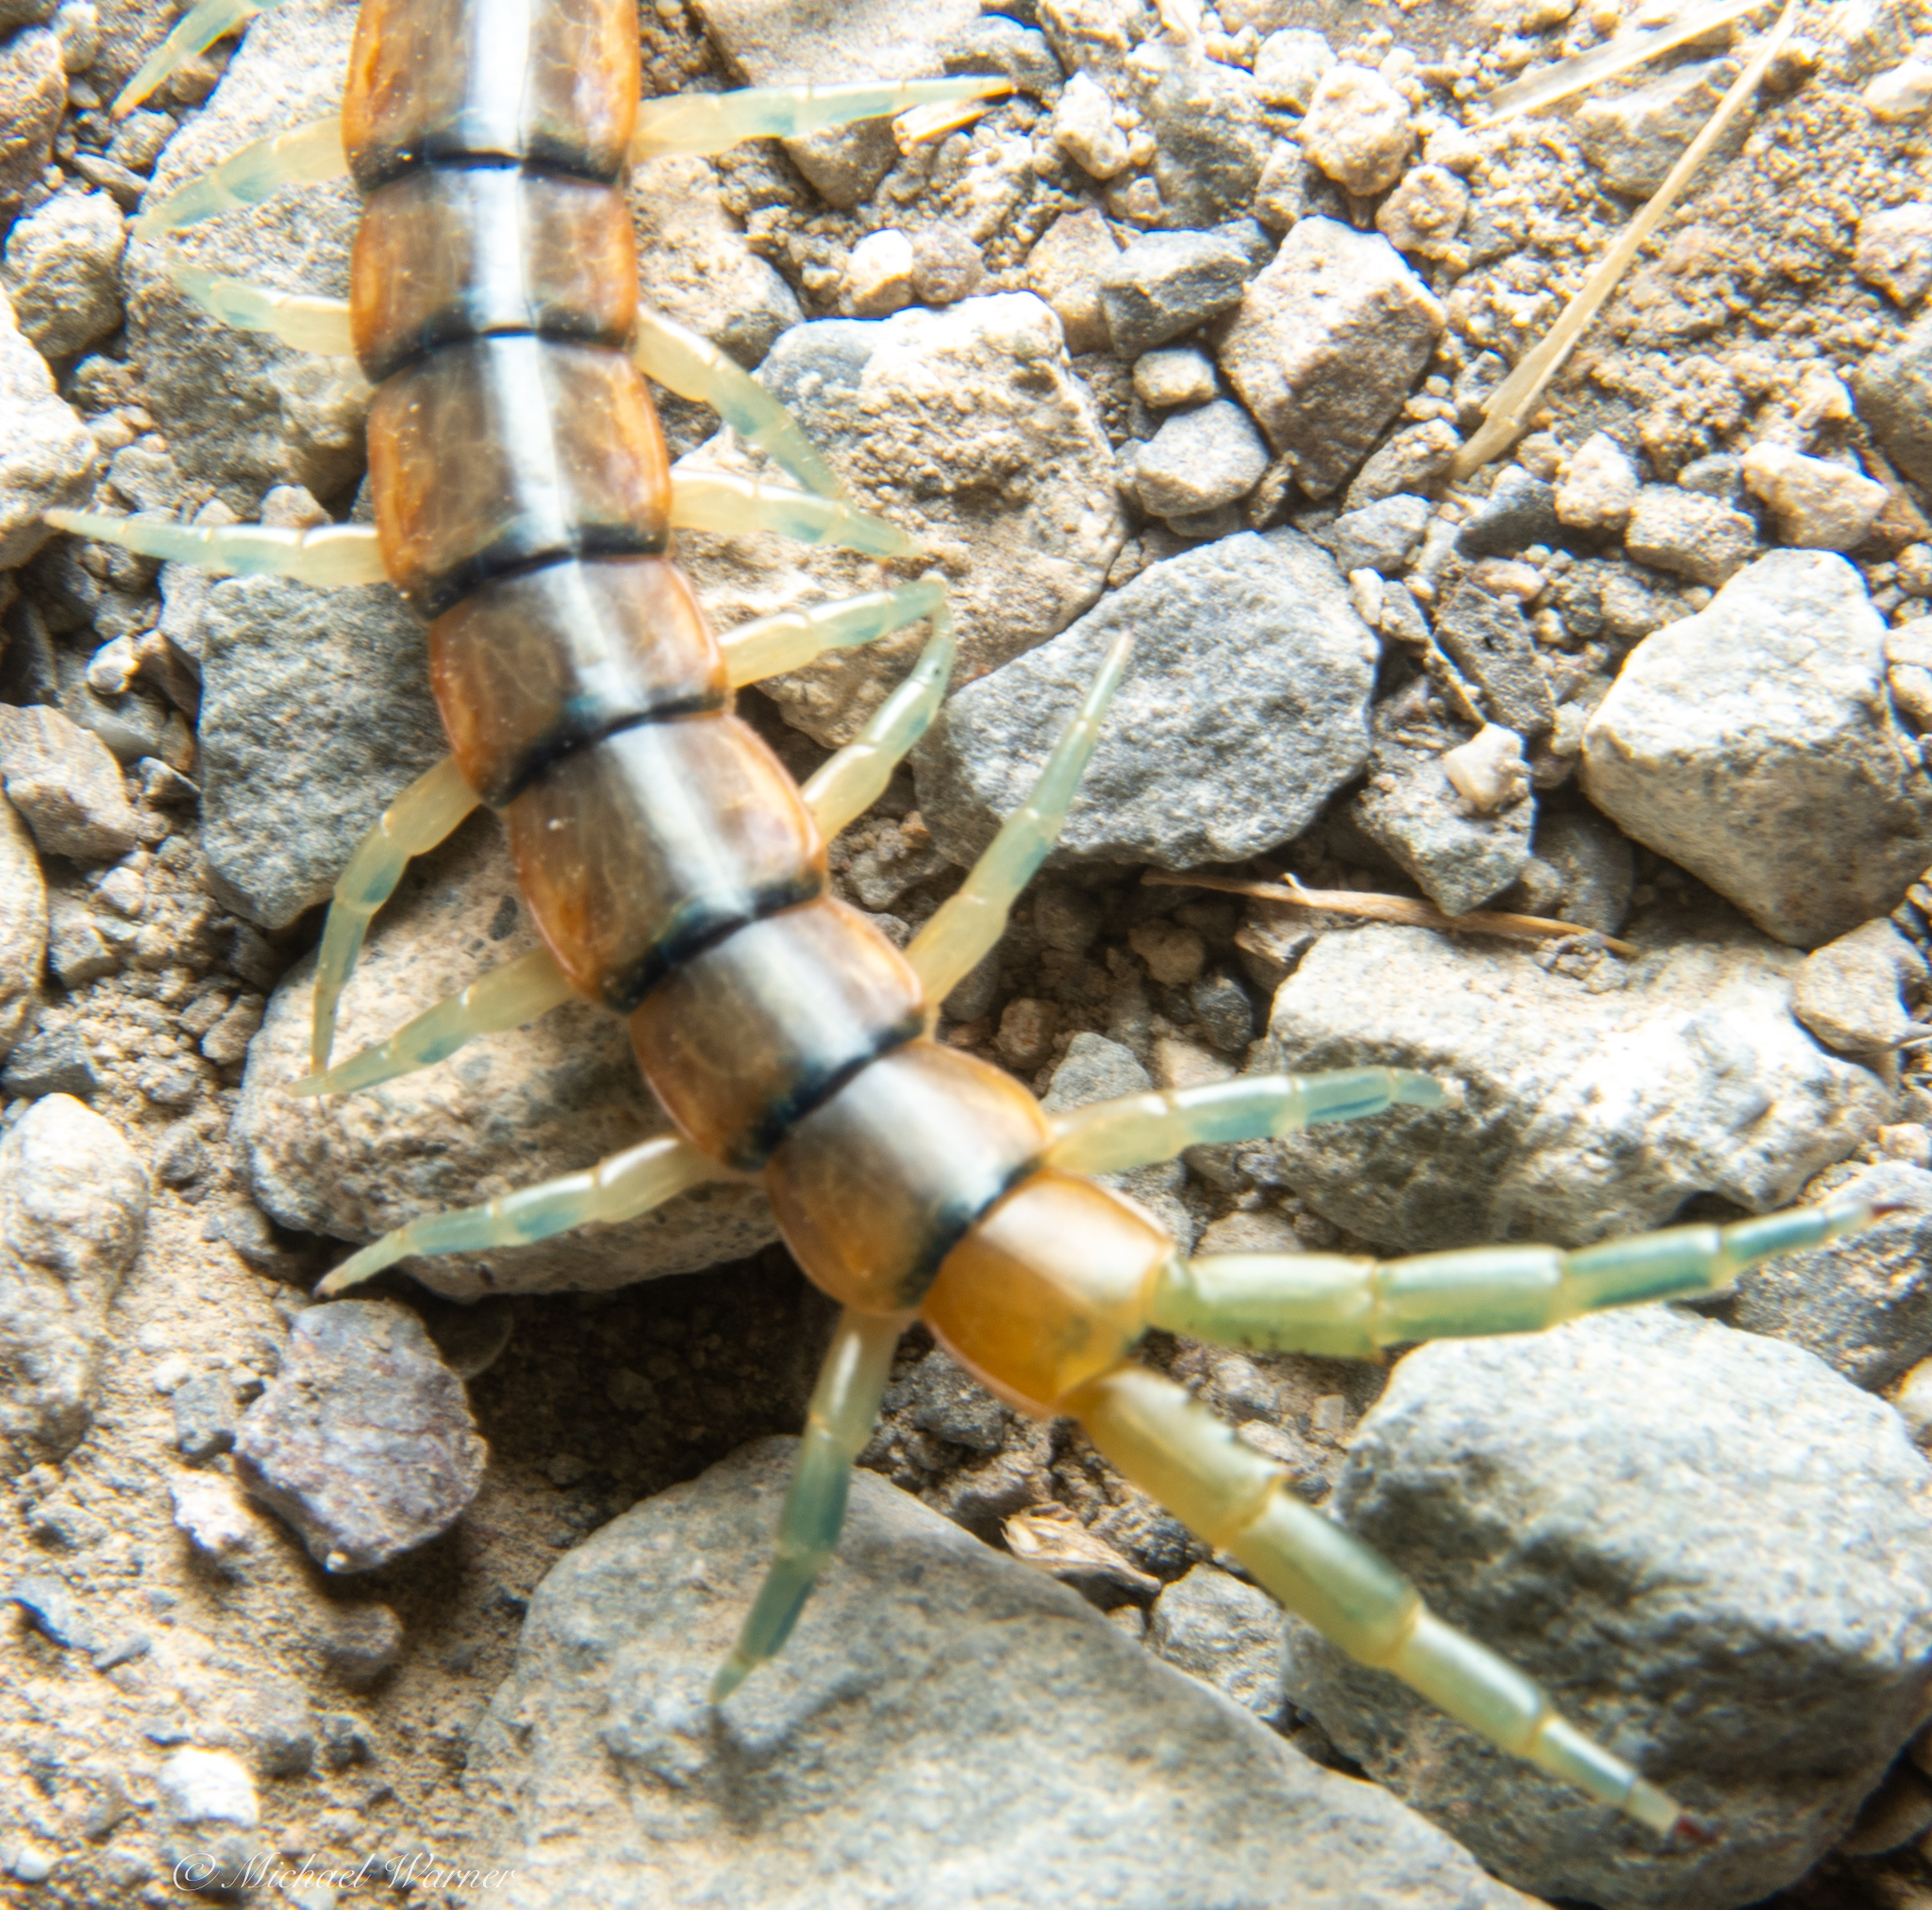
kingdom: Animalia
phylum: Arthropoda
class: Chilopoda
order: Scolopendromorpha
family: Scolopendridae
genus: Scolopendra
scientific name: Scolopendra polymorpha
